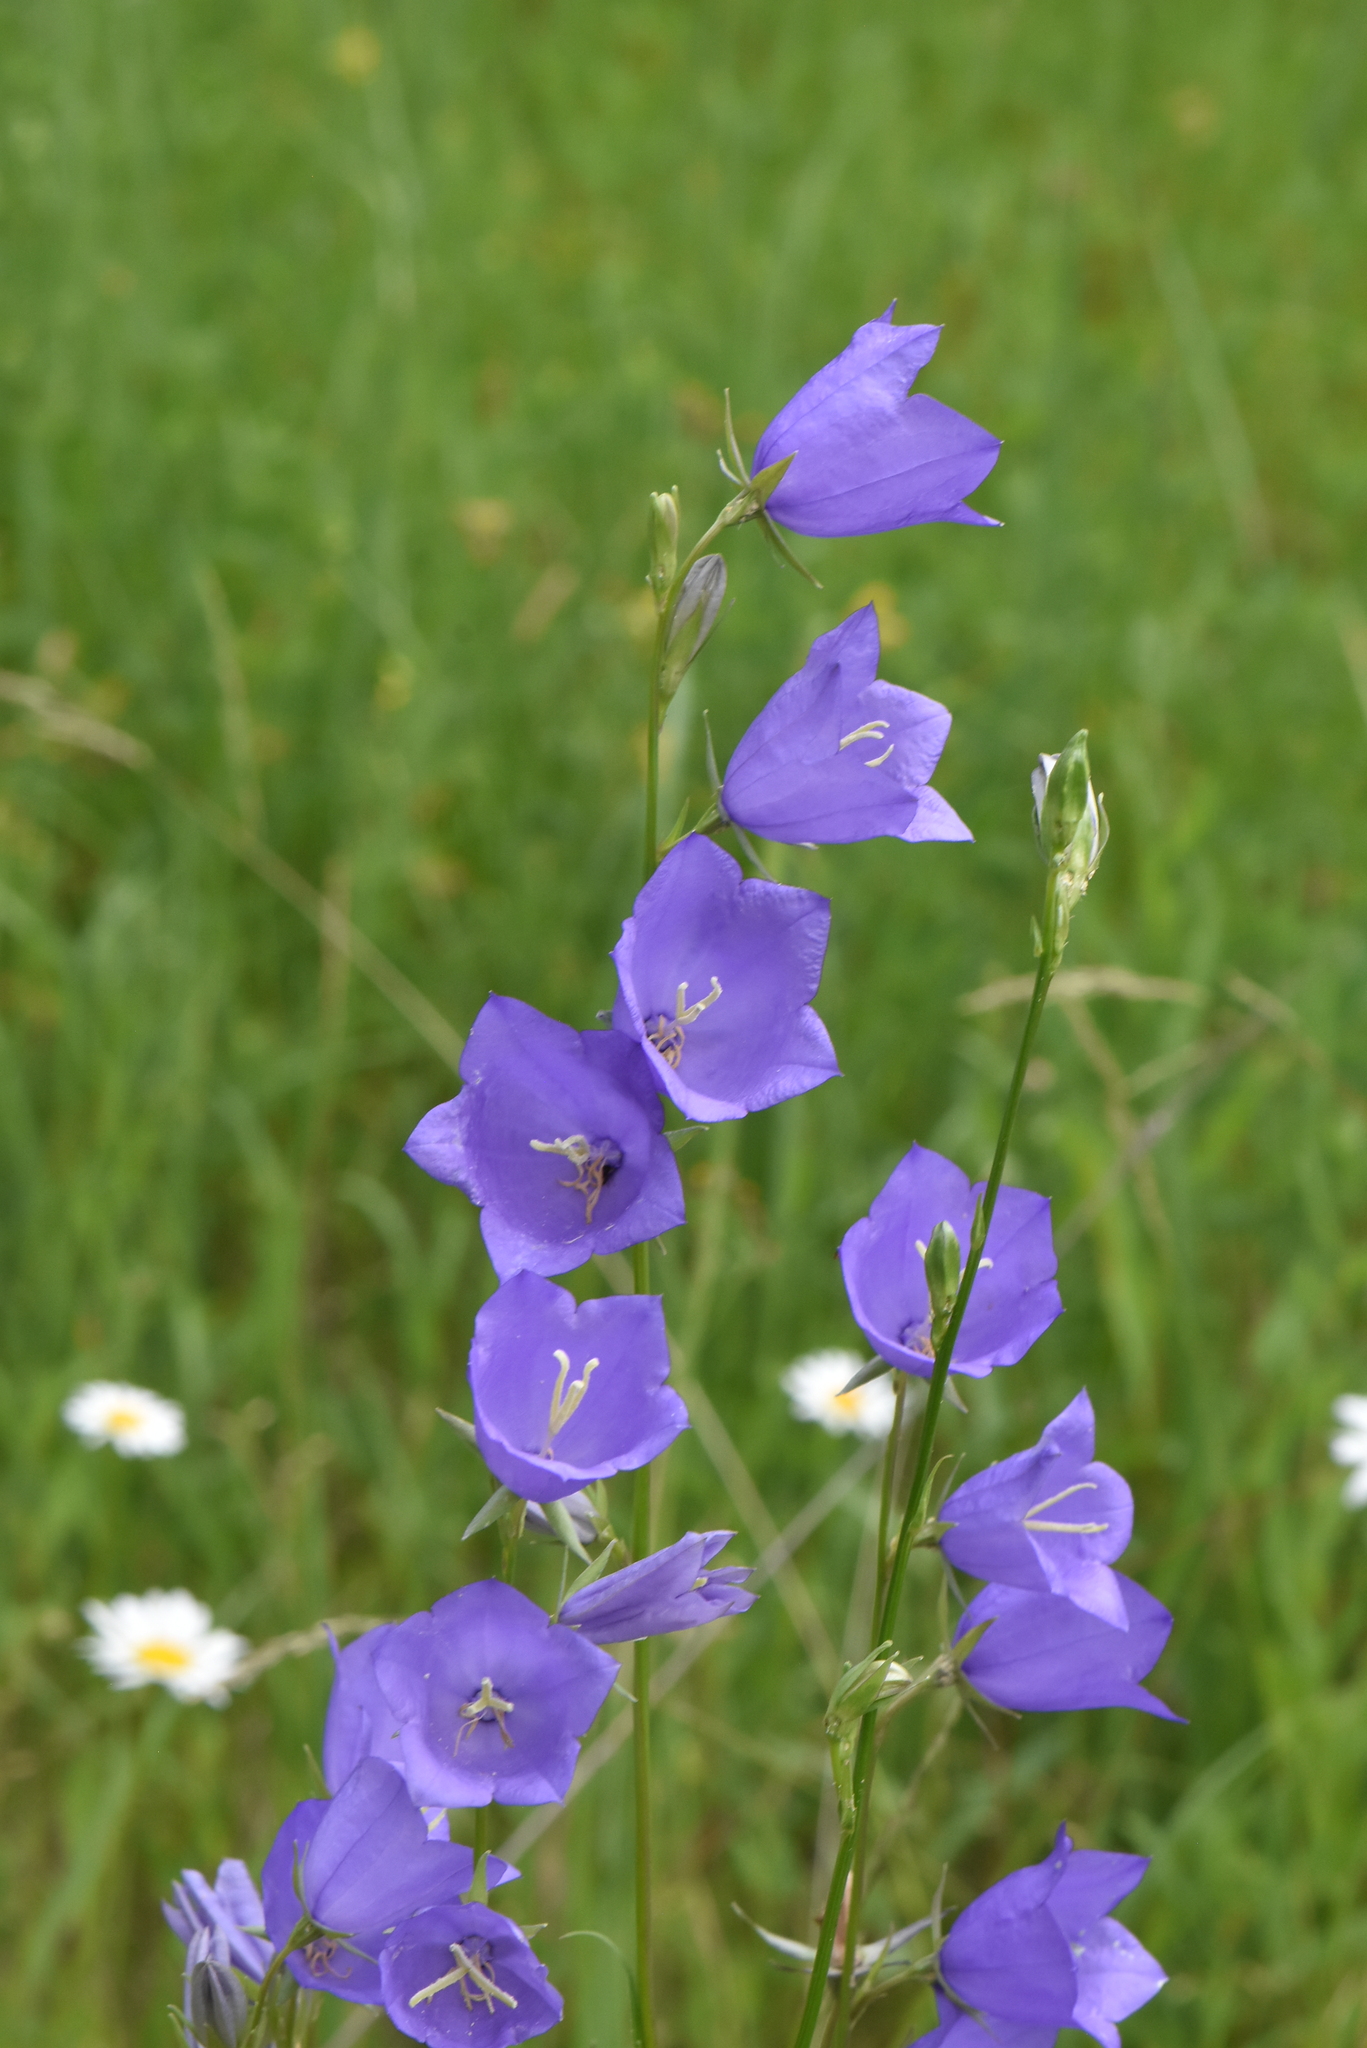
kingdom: Plantae
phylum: Tracheophyta
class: Magnoliopsida
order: Asterales
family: Campanulaceae
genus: Campanula
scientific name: Campanula persicifolia
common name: Peach-leaved bellflower
